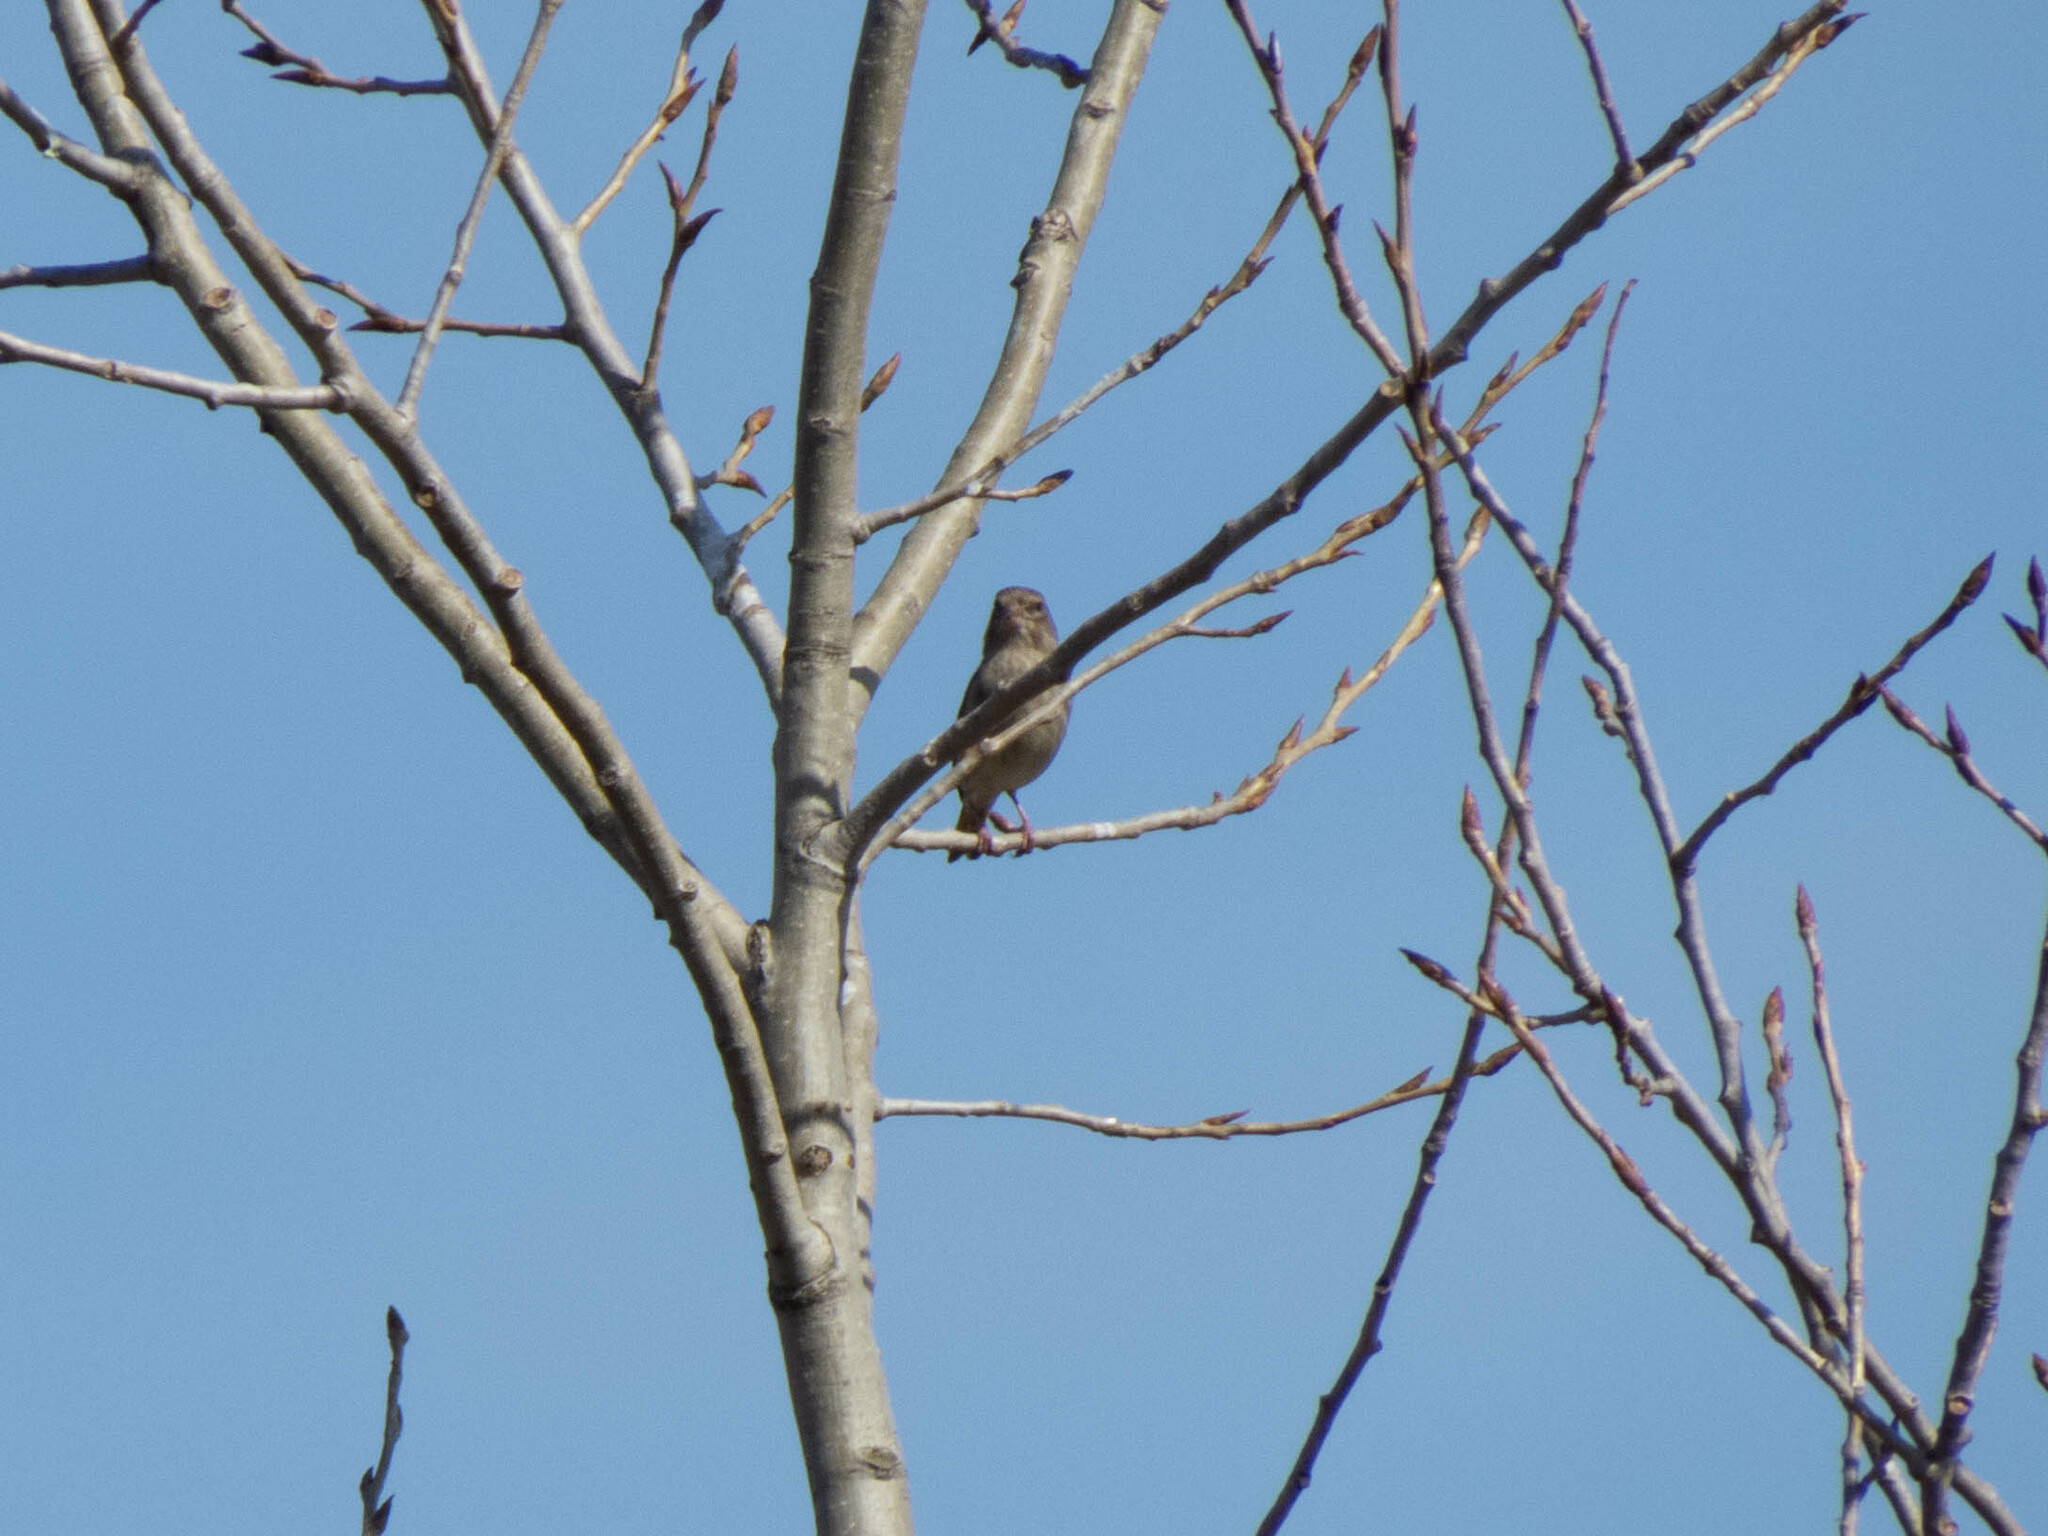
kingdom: Plantae
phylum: Tracheophyta
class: Liliopsida
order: Poales
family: Poaceae
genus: Chloris
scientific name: Chloris chloris
